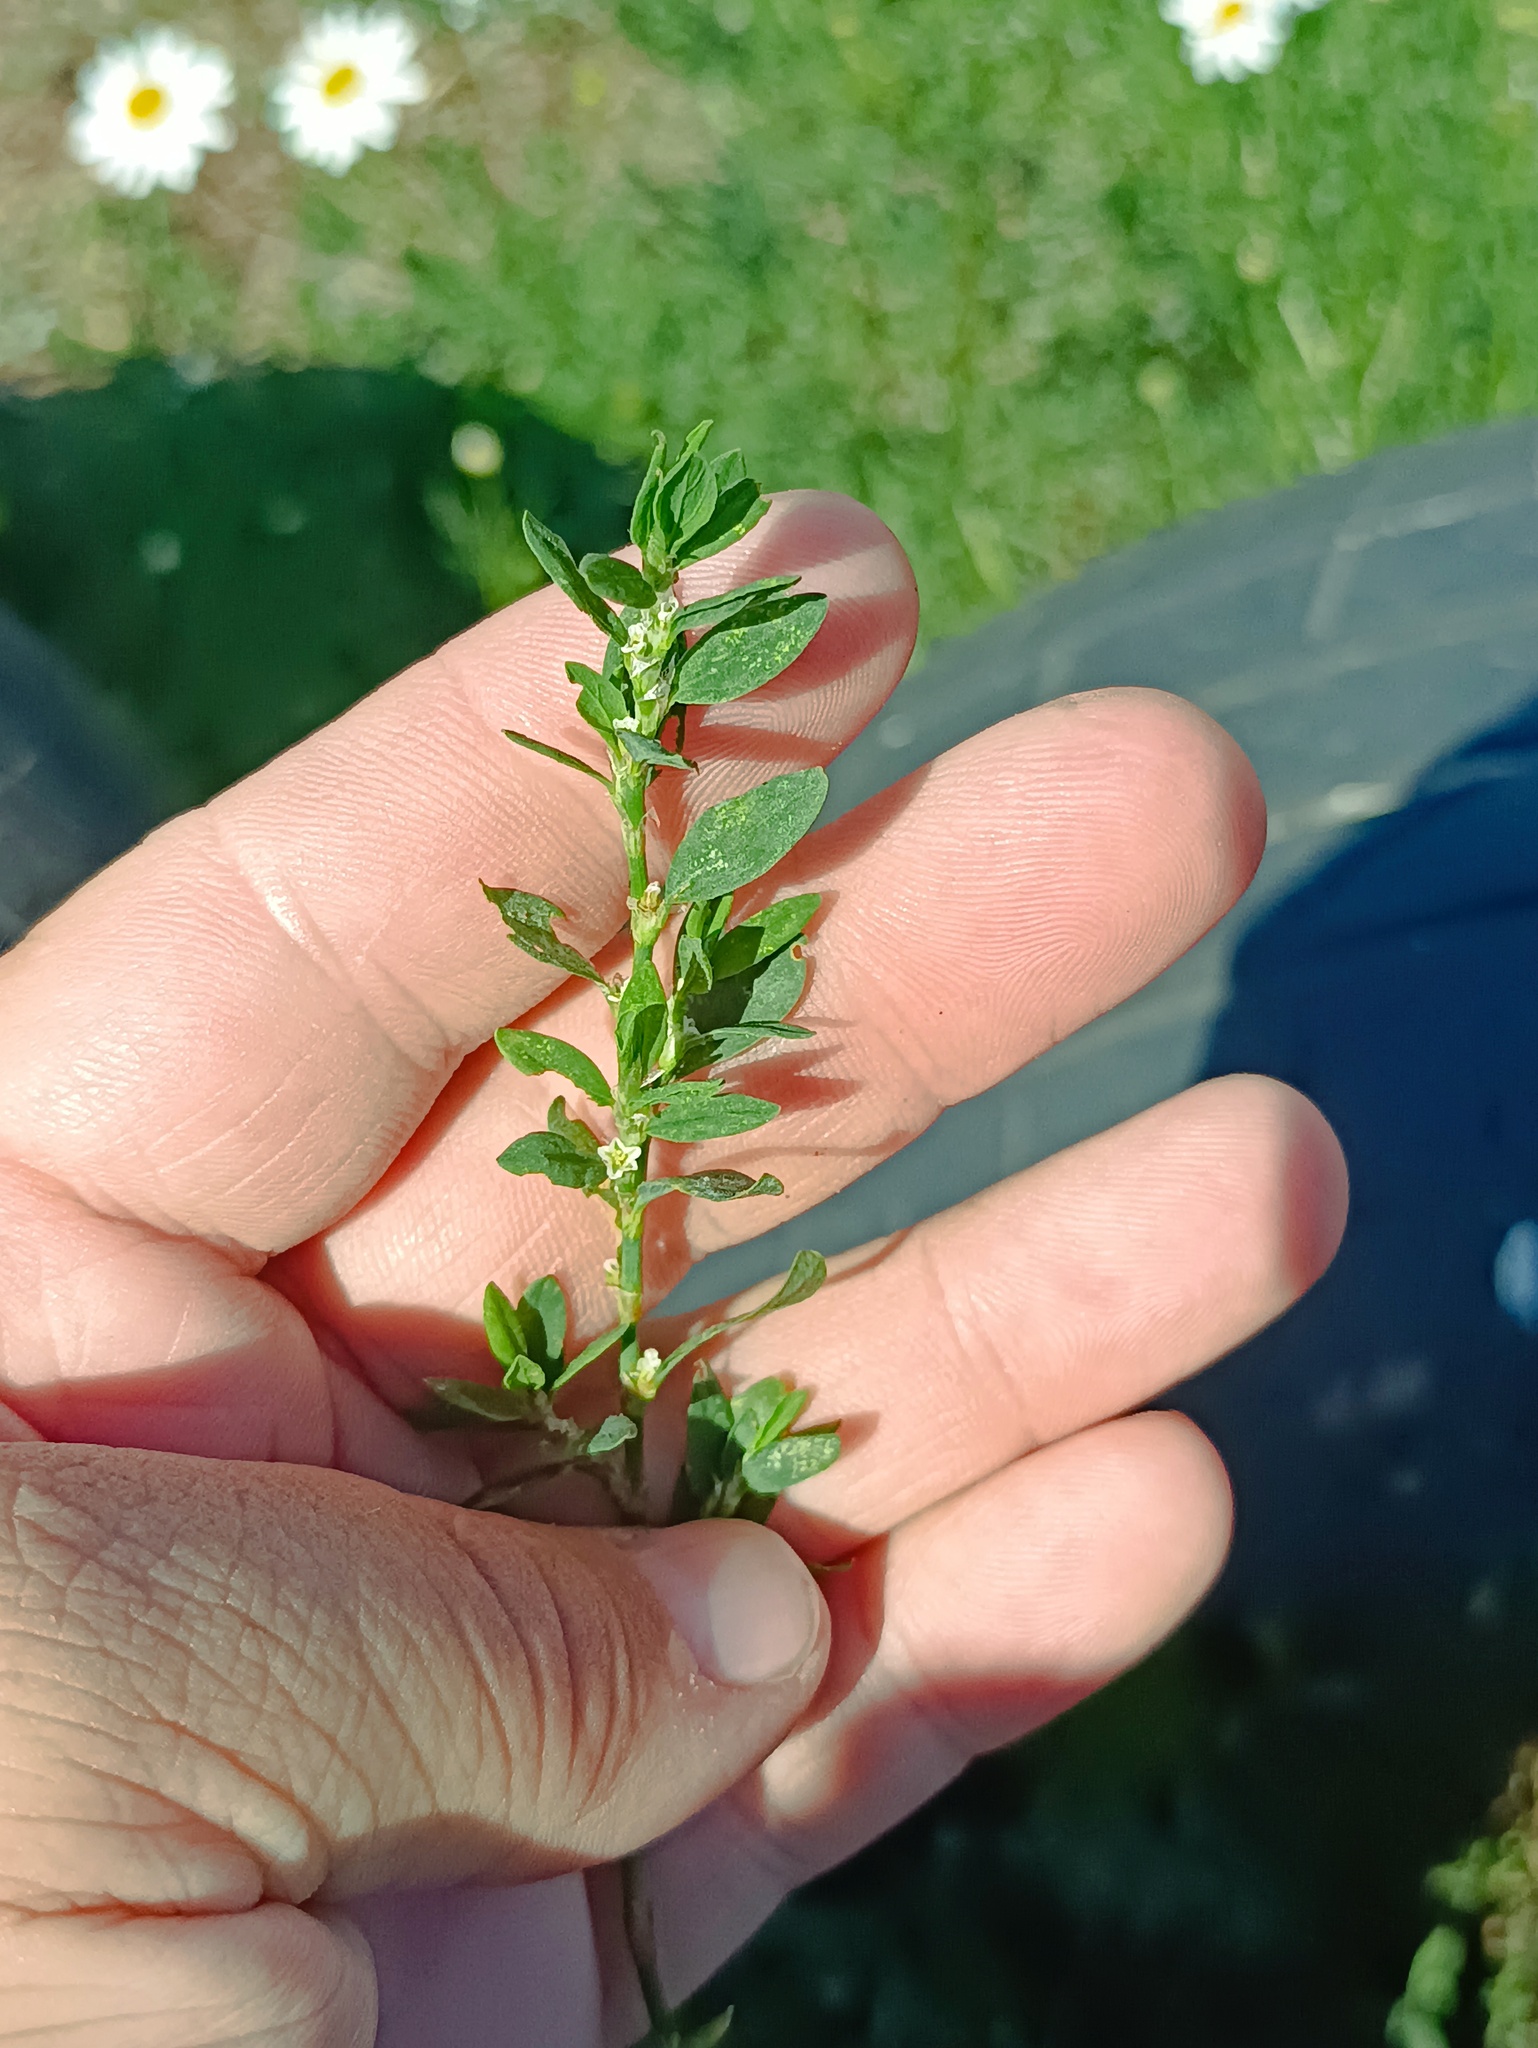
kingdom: Plantae
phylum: Tracheophyta
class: Magnoliopsida
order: Caryophyllales
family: Polygonaceae
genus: Polygonum
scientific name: Polygonum
